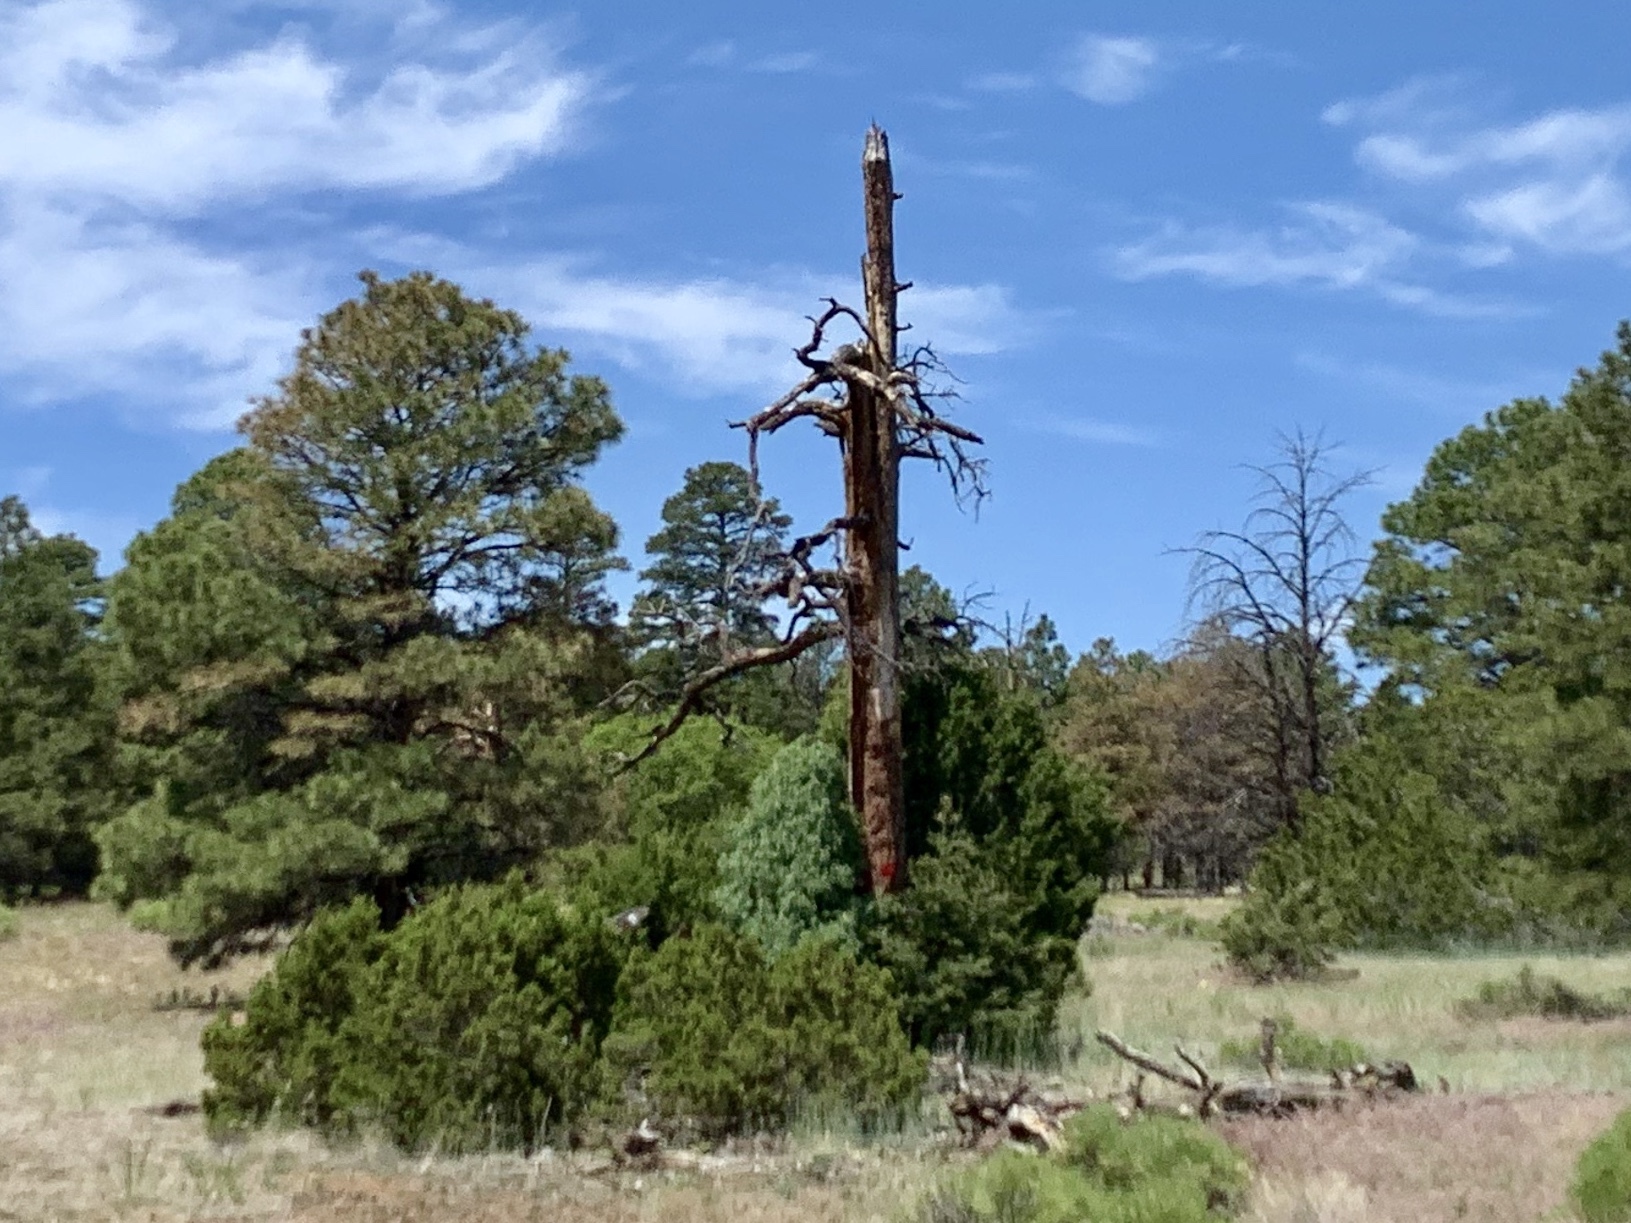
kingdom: Plantae
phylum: Tracheophyta
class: Pinopsida
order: Pinales
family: Pinaceae
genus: Pinus
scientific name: Pinus ponderosa
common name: Western yellow-pine
